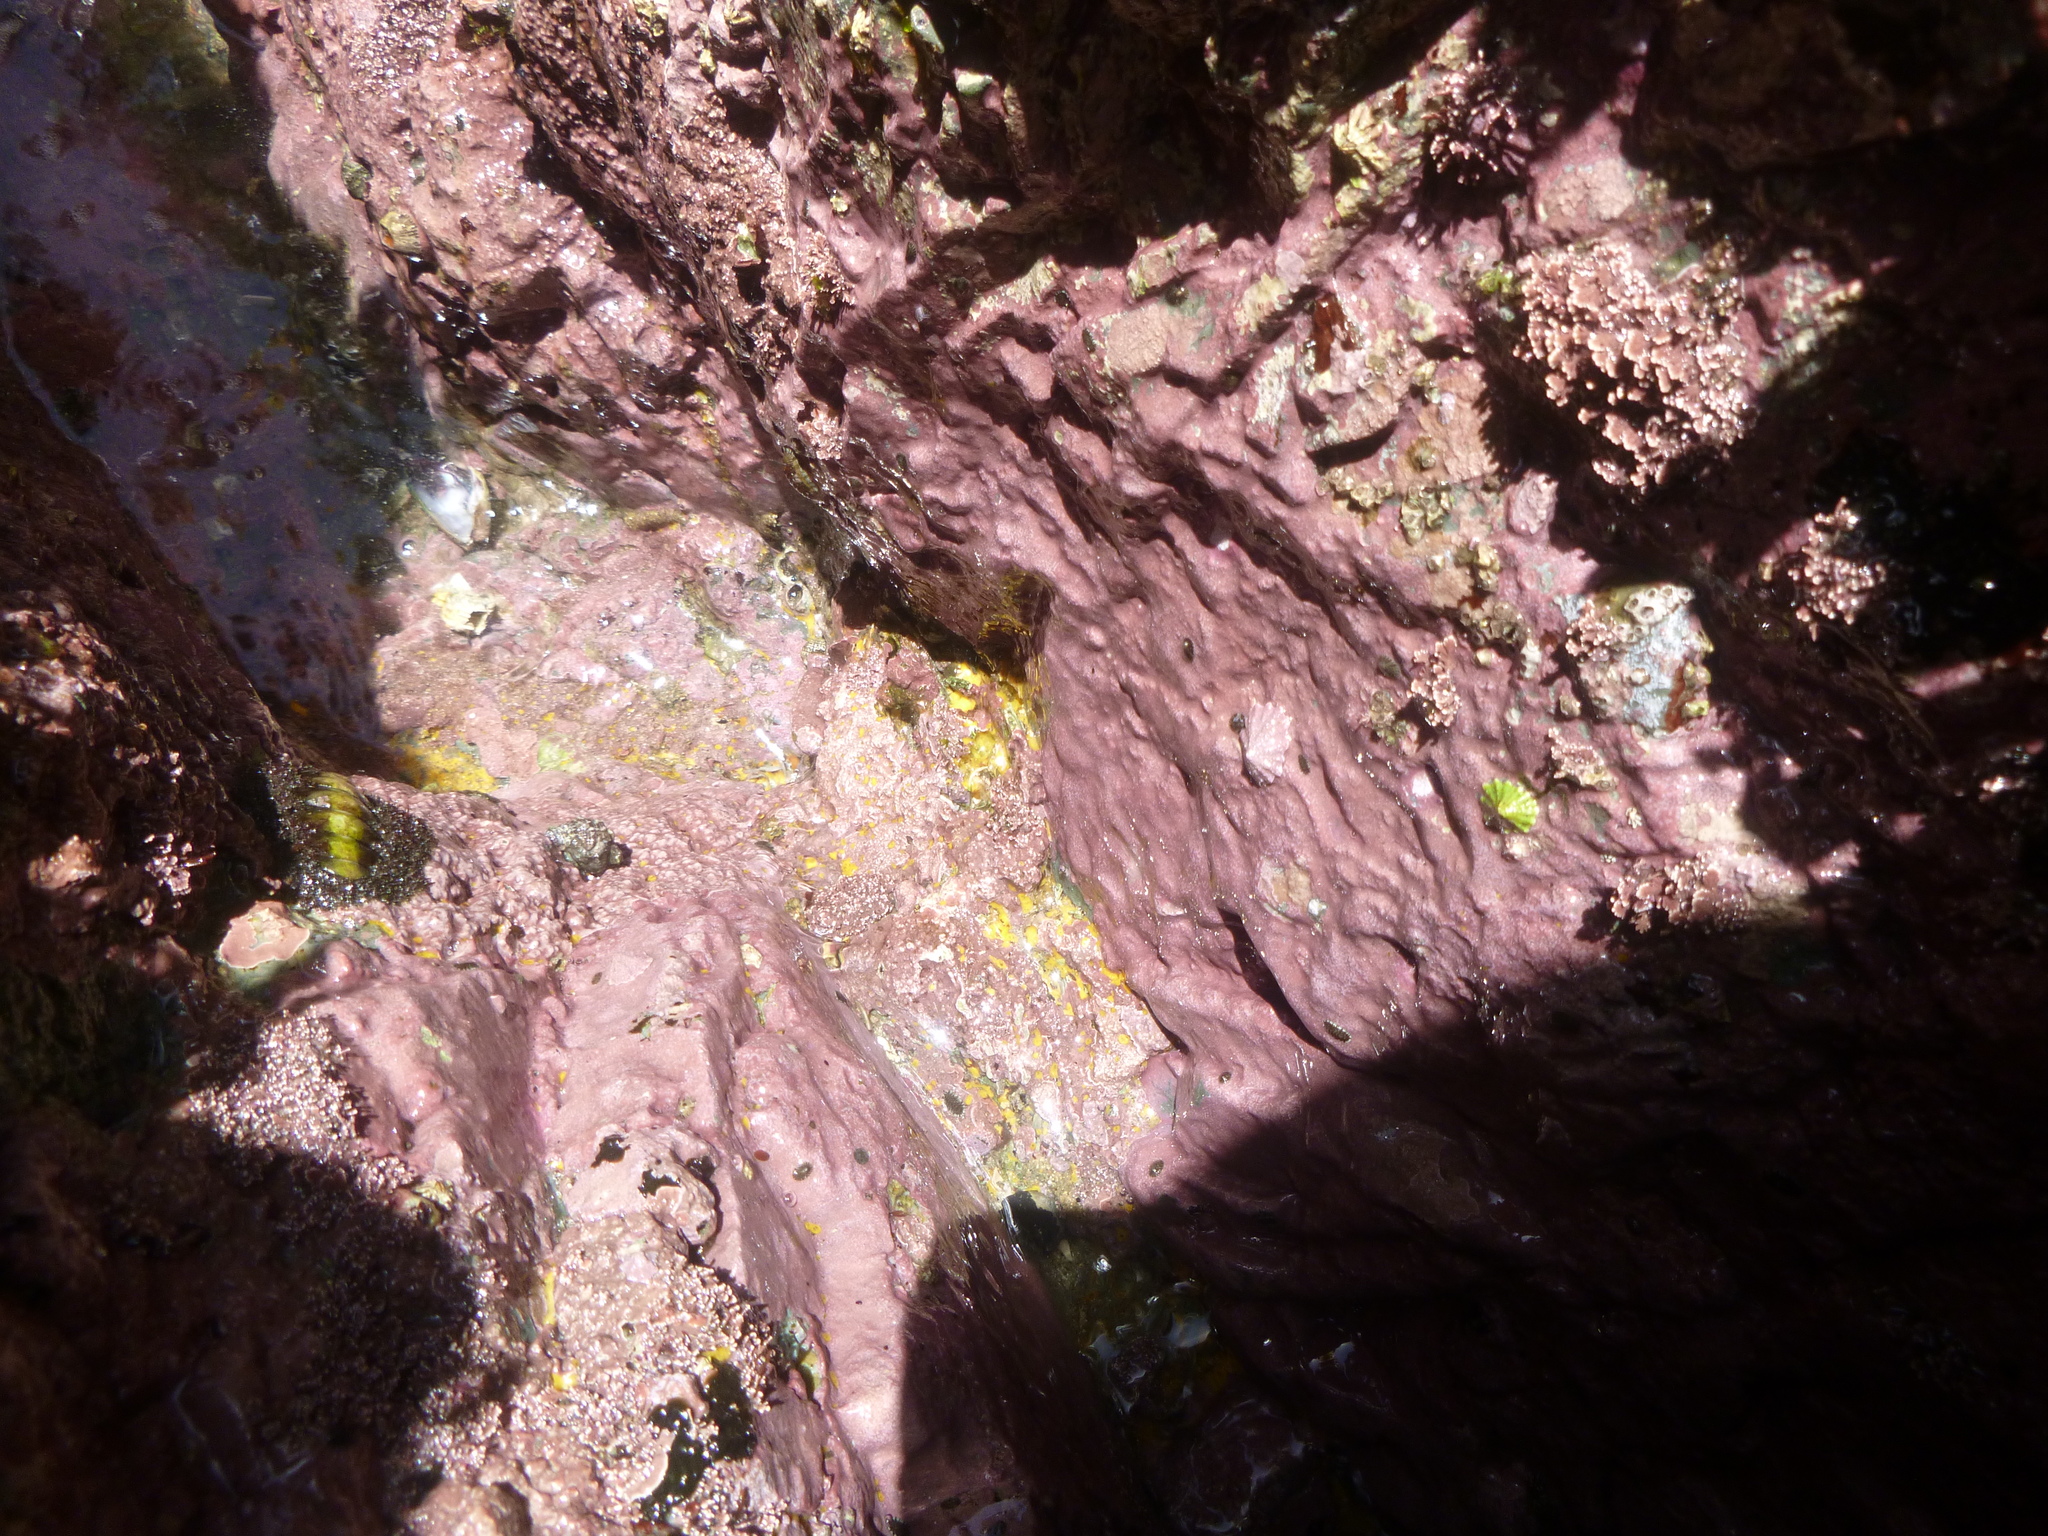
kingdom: Plantae
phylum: Rhodophyta
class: Florideophyceae
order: Corallinales
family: Spongitaceae
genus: Spongites
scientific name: Spongites yendoi
